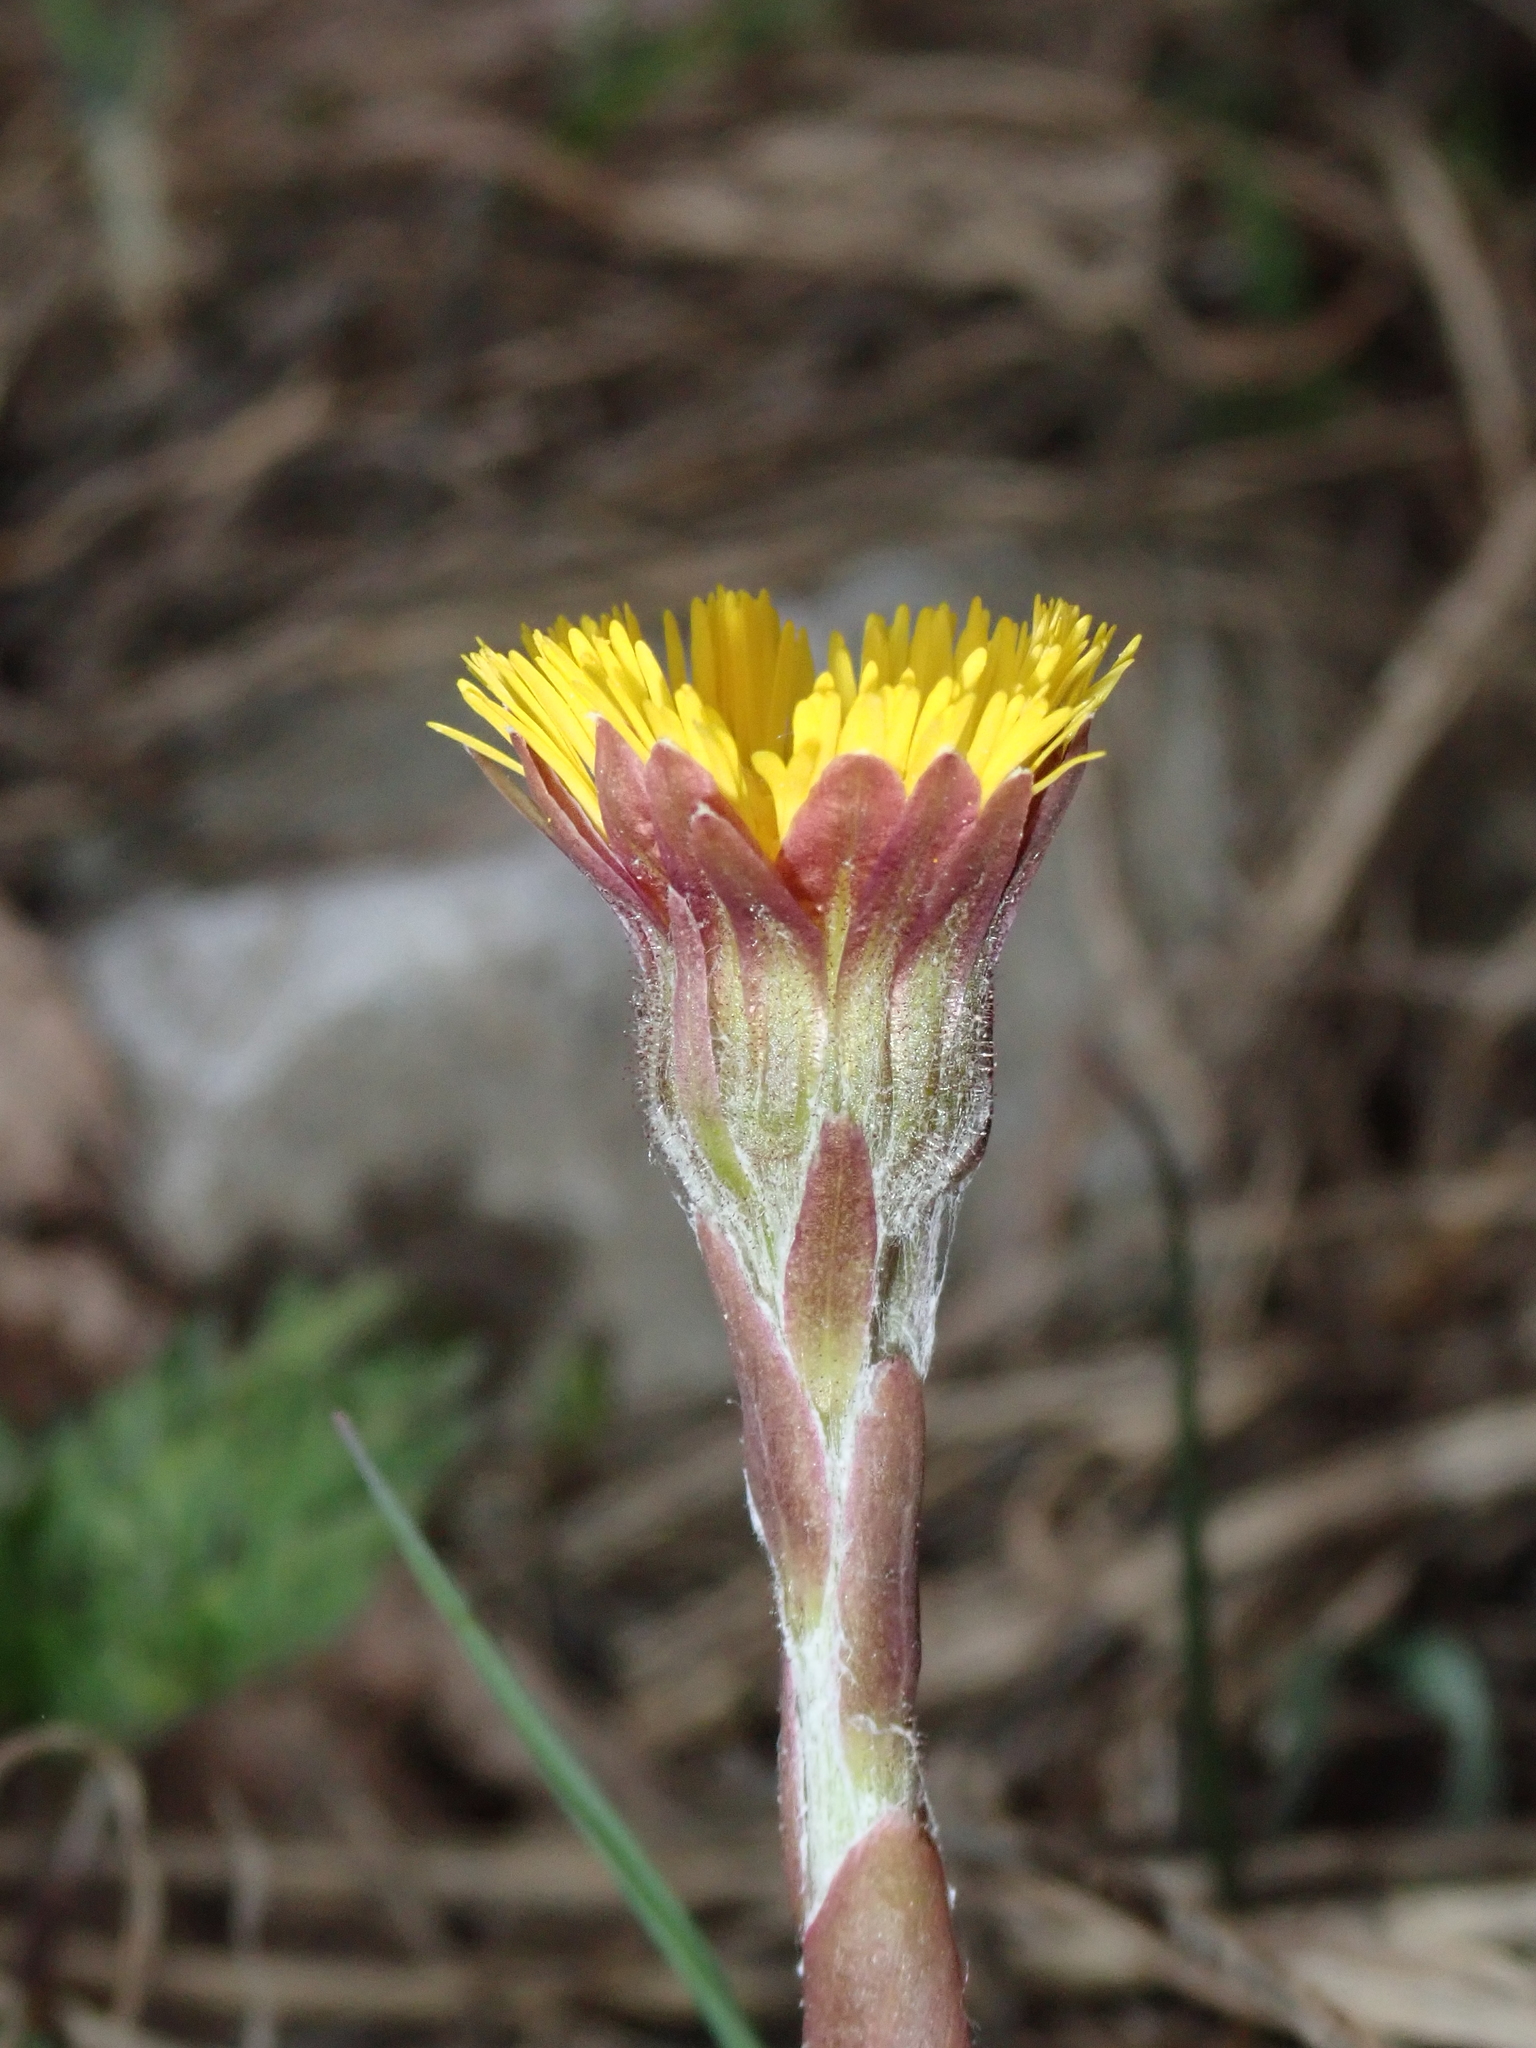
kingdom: Plantae
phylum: Tracheophyta
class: Magnoliopsida
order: Asterales
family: Asteraceae
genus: Tussilago
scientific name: Tussilago farfara
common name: Coltsfoot
